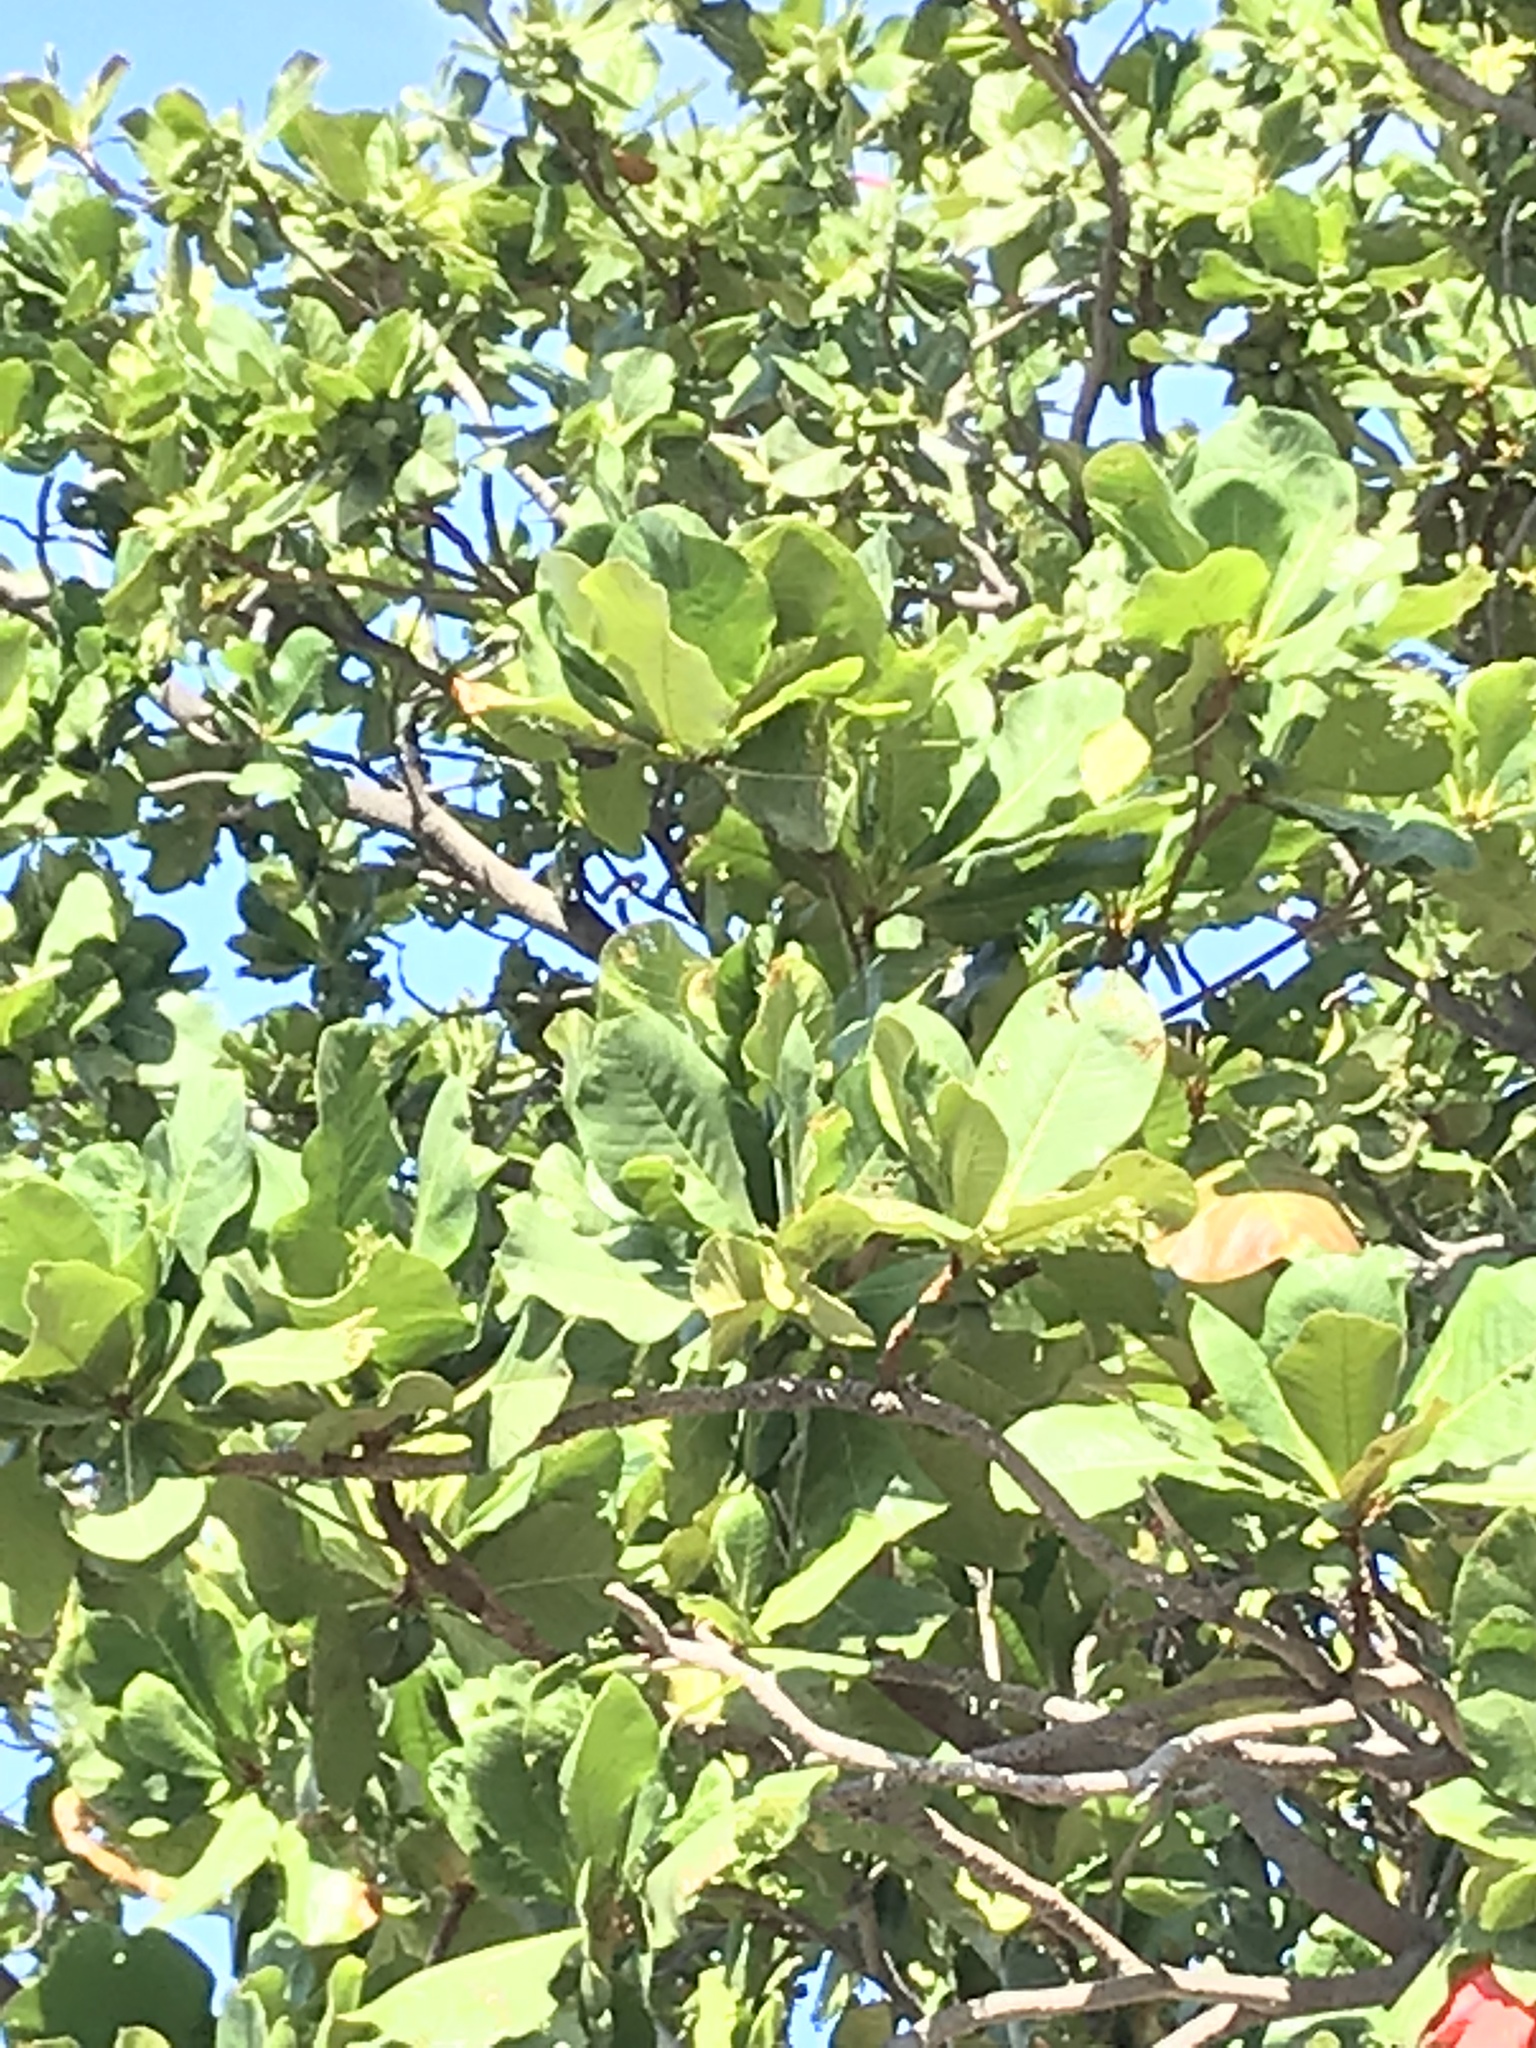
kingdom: Plantae
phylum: Tracheophyta
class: Magnoliopsida
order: Myrtales
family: Combretaceae
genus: Terminalia
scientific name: Terminalia catappa
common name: Tropical almond
